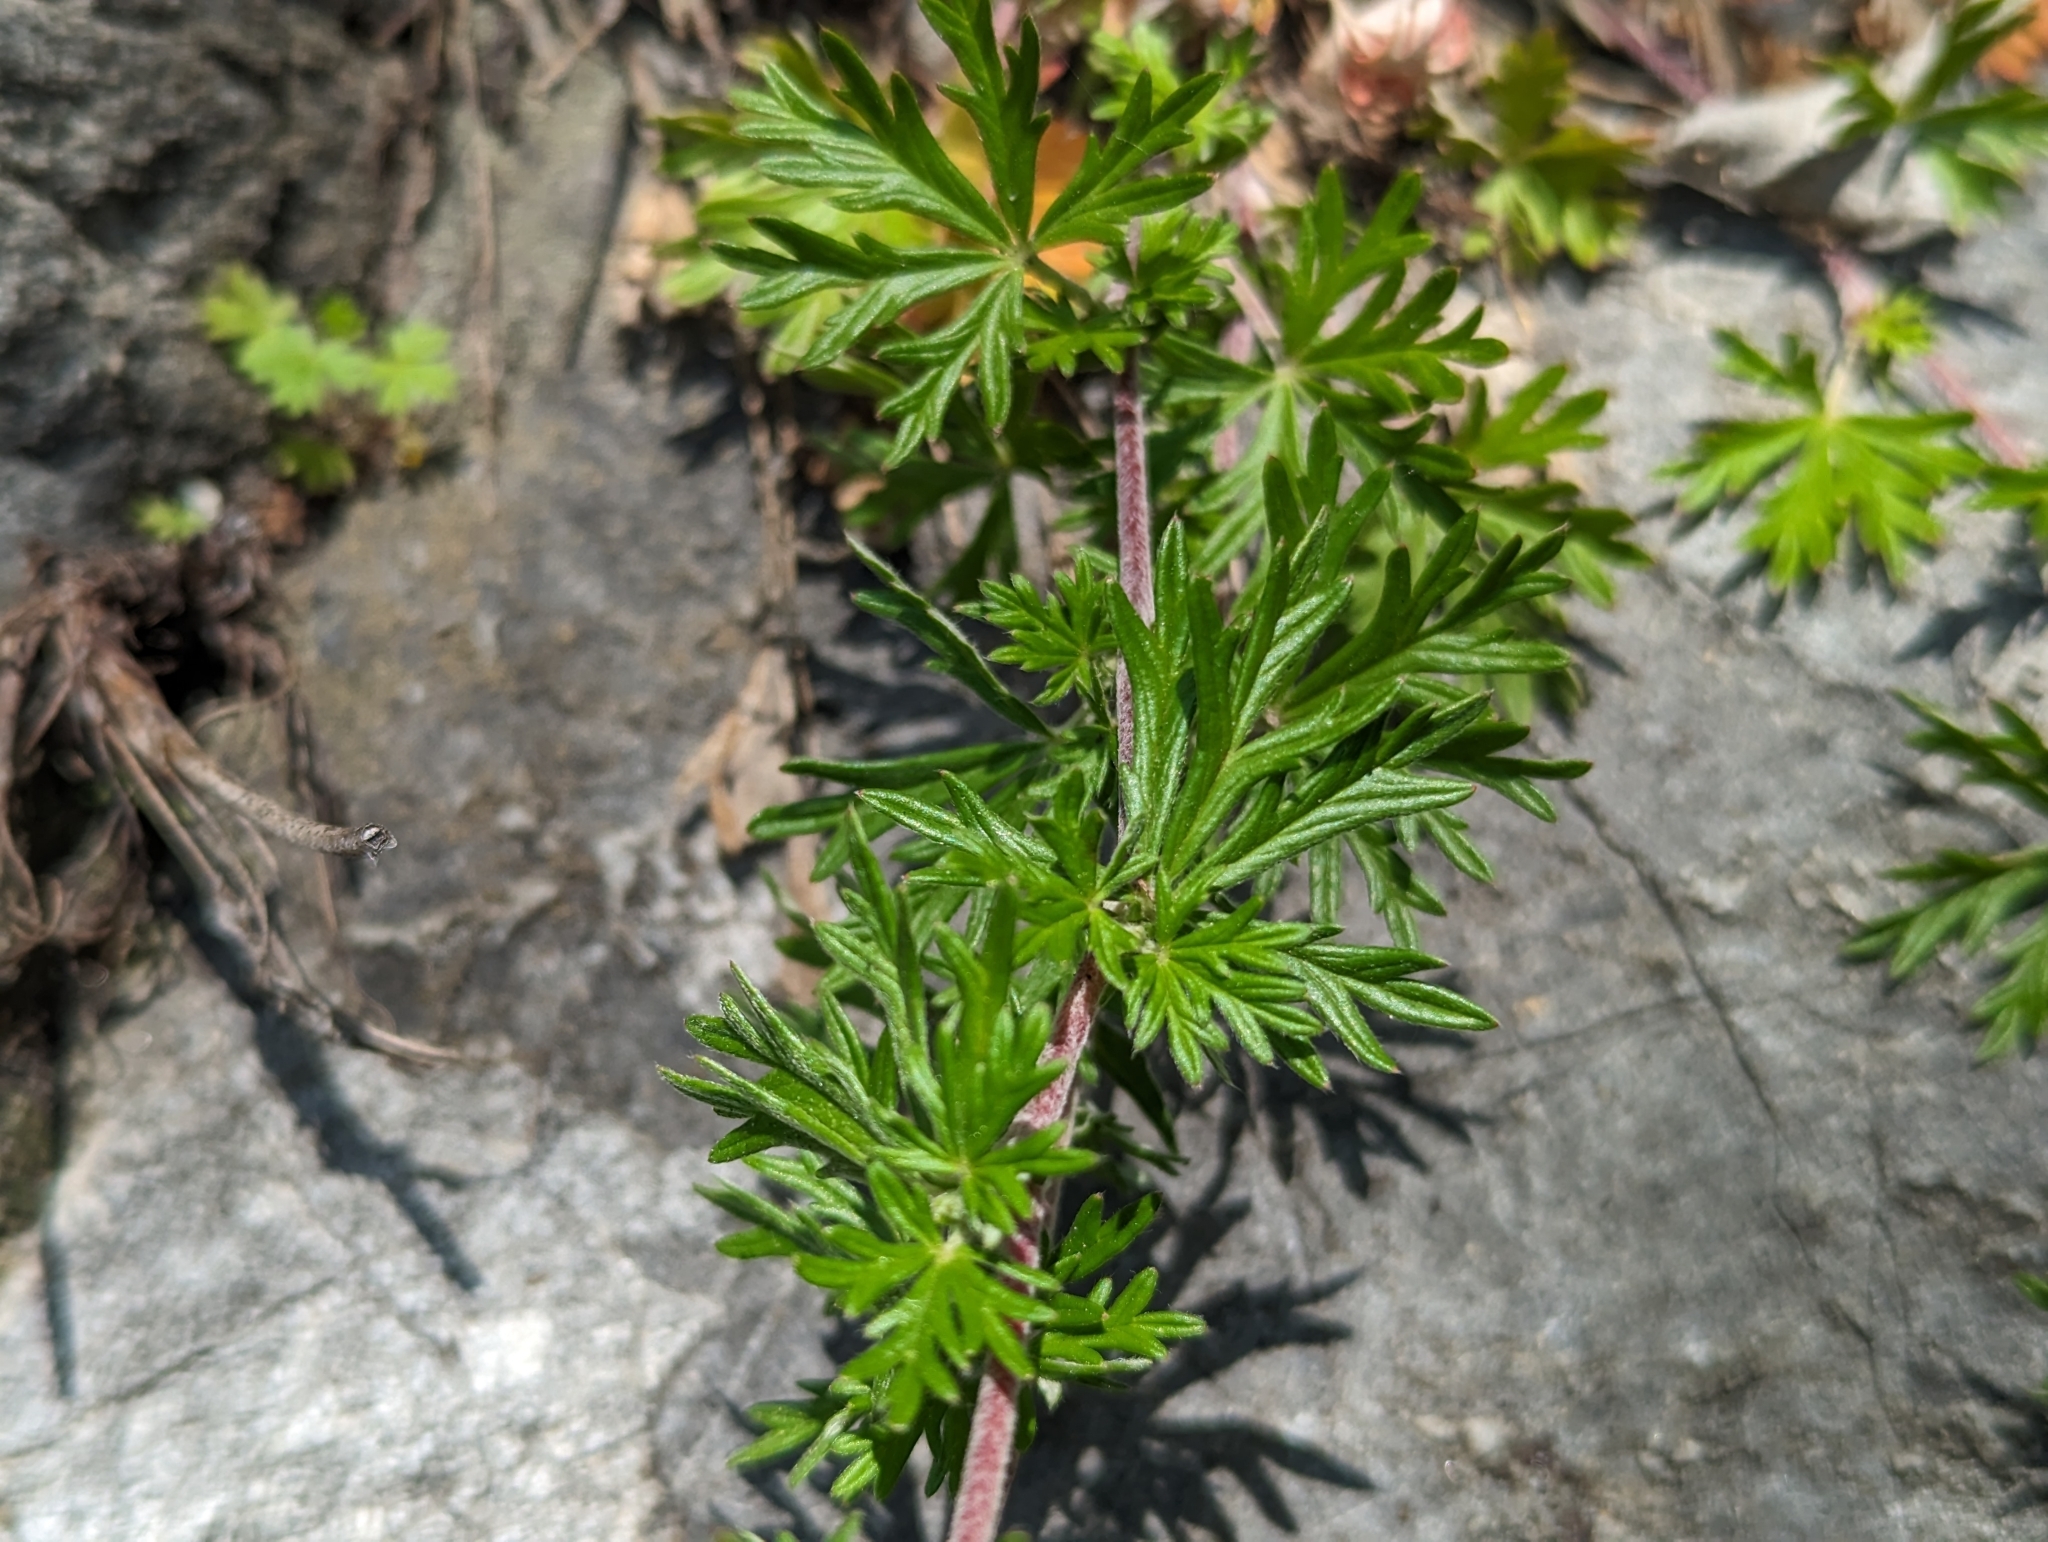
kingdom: Plantae
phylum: Tracheophyta
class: Magnoliopsida
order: Rosales
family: Rosaceae
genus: Potentilla
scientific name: Potentilla argentea
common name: Hoary cinquefoil
